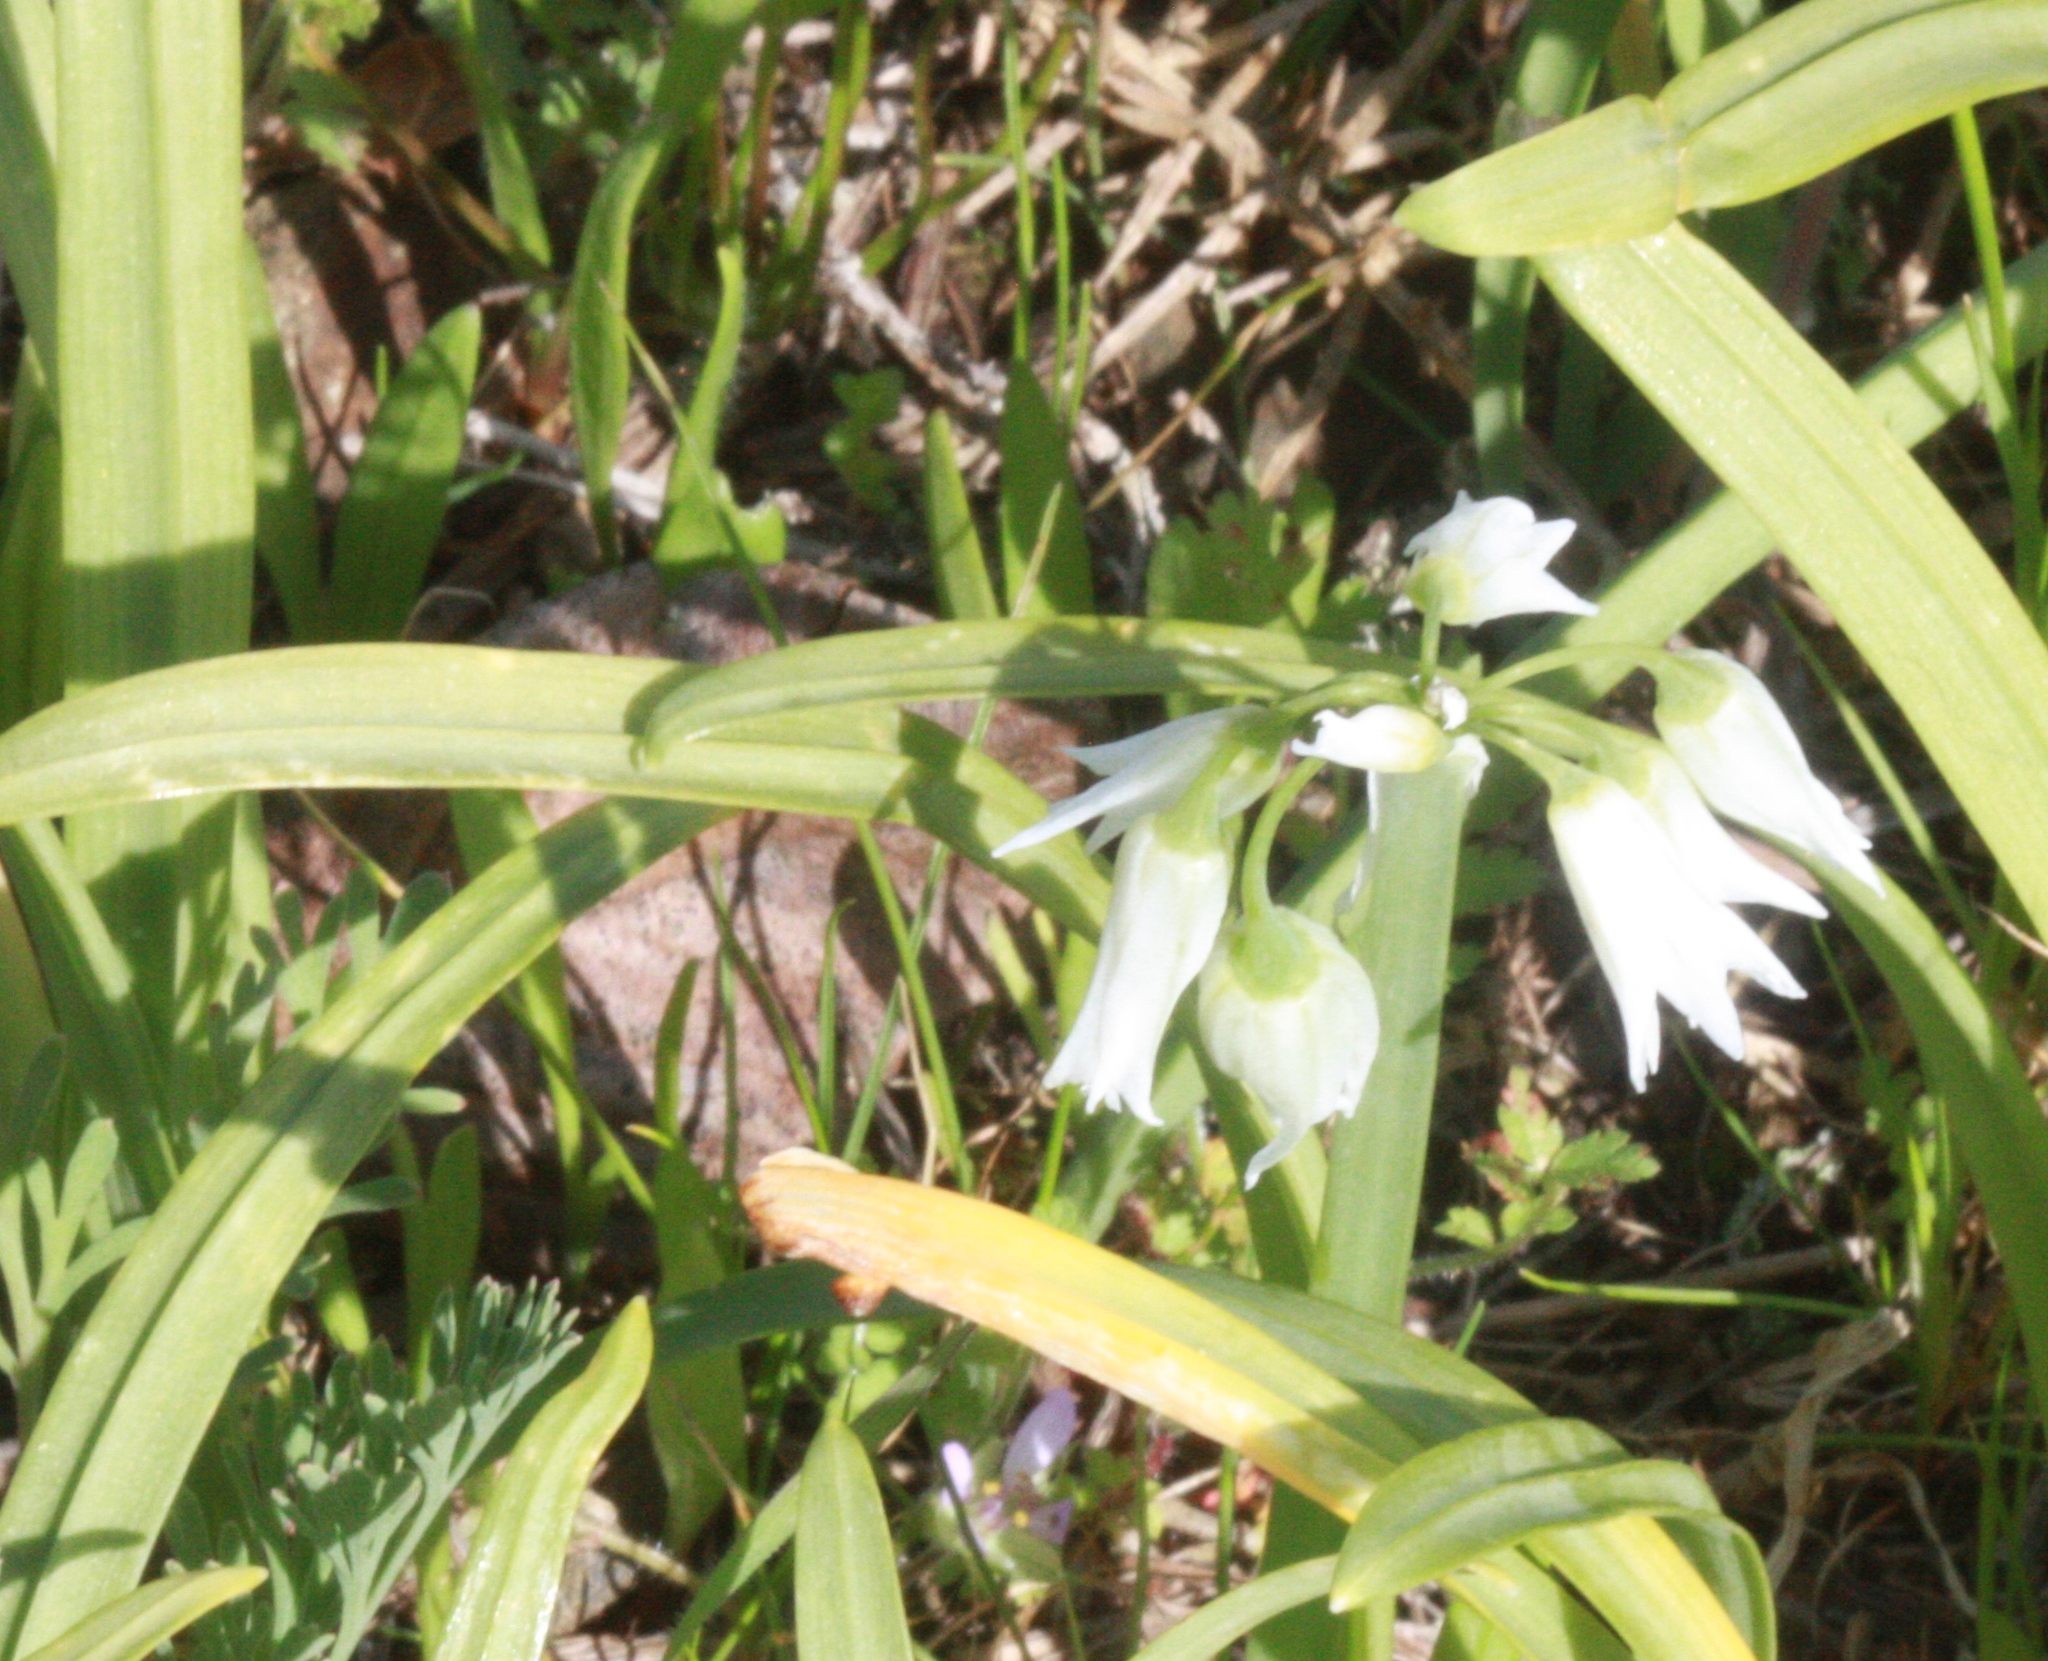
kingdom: Plantae
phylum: Tracheophyta
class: Liliopsida
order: Asparagales
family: Amaryllidaceae
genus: Allium
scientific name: Allium triquetrum
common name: Three-cornered garlic
